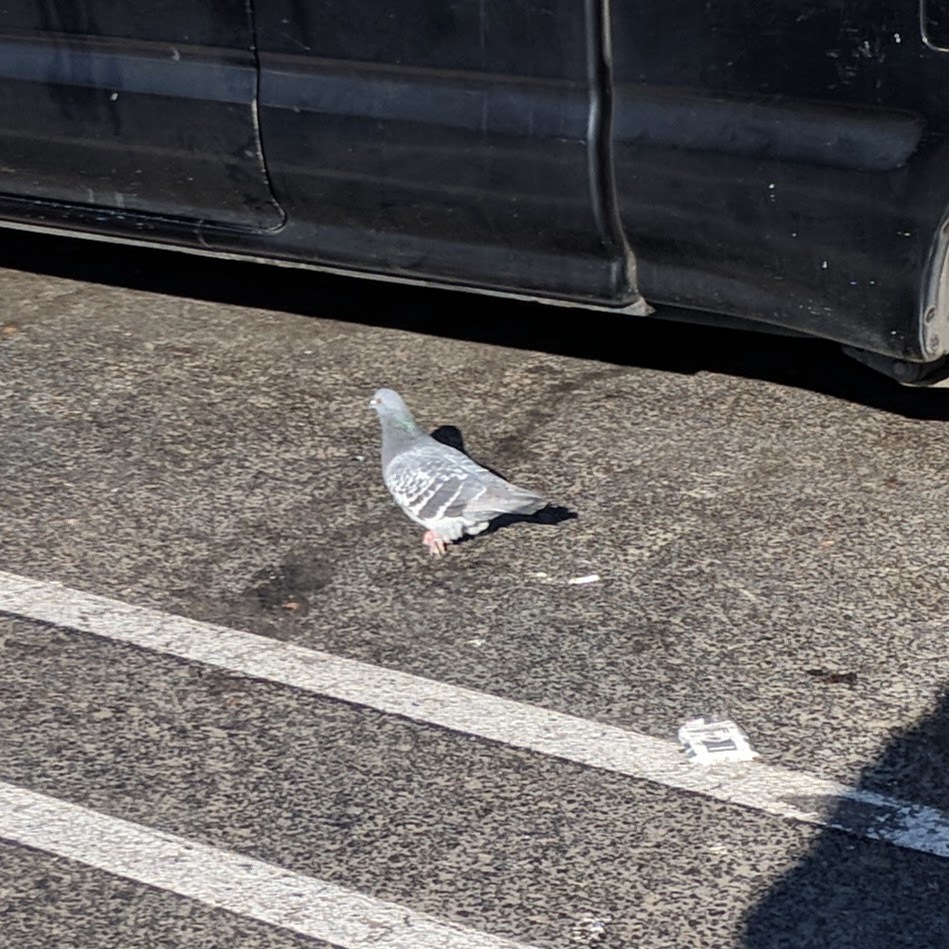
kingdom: Animalia
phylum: Chordata
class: Aves
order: Columbiformes
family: Columbidae
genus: Columba
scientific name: Columba livia
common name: Rock pigeon
